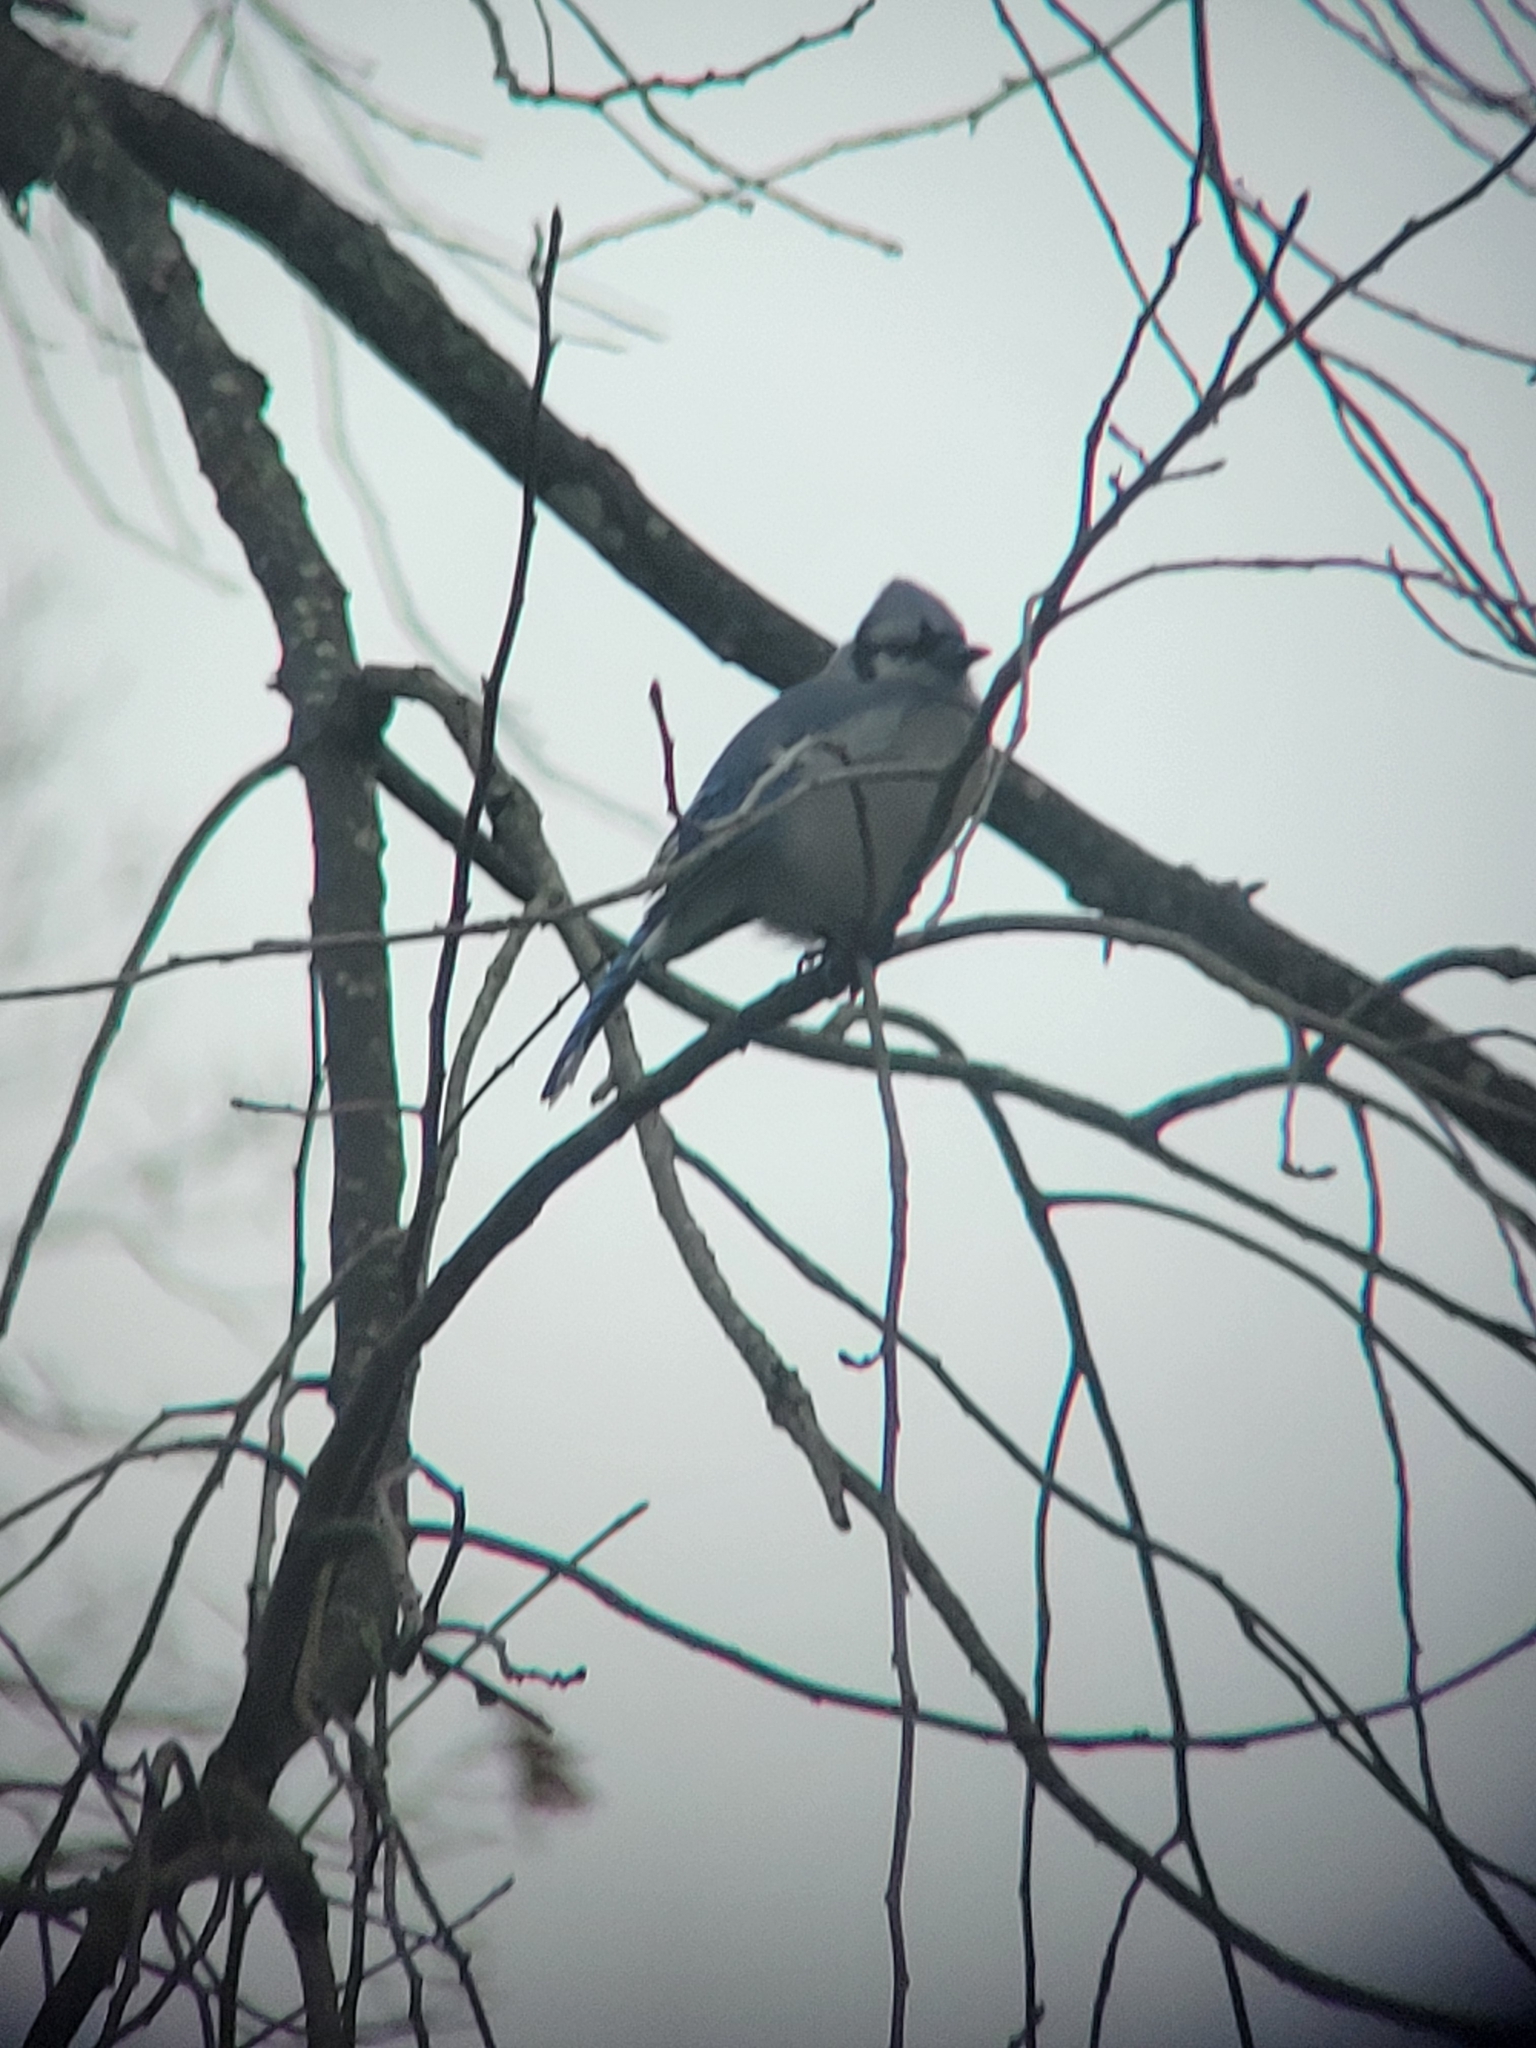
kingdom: Animalia
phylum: Chordata
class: Aves
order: Passeriformes
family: Corvidae
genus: Cyanocitta
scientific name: Cyanocitta cristata
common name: Blue jay
